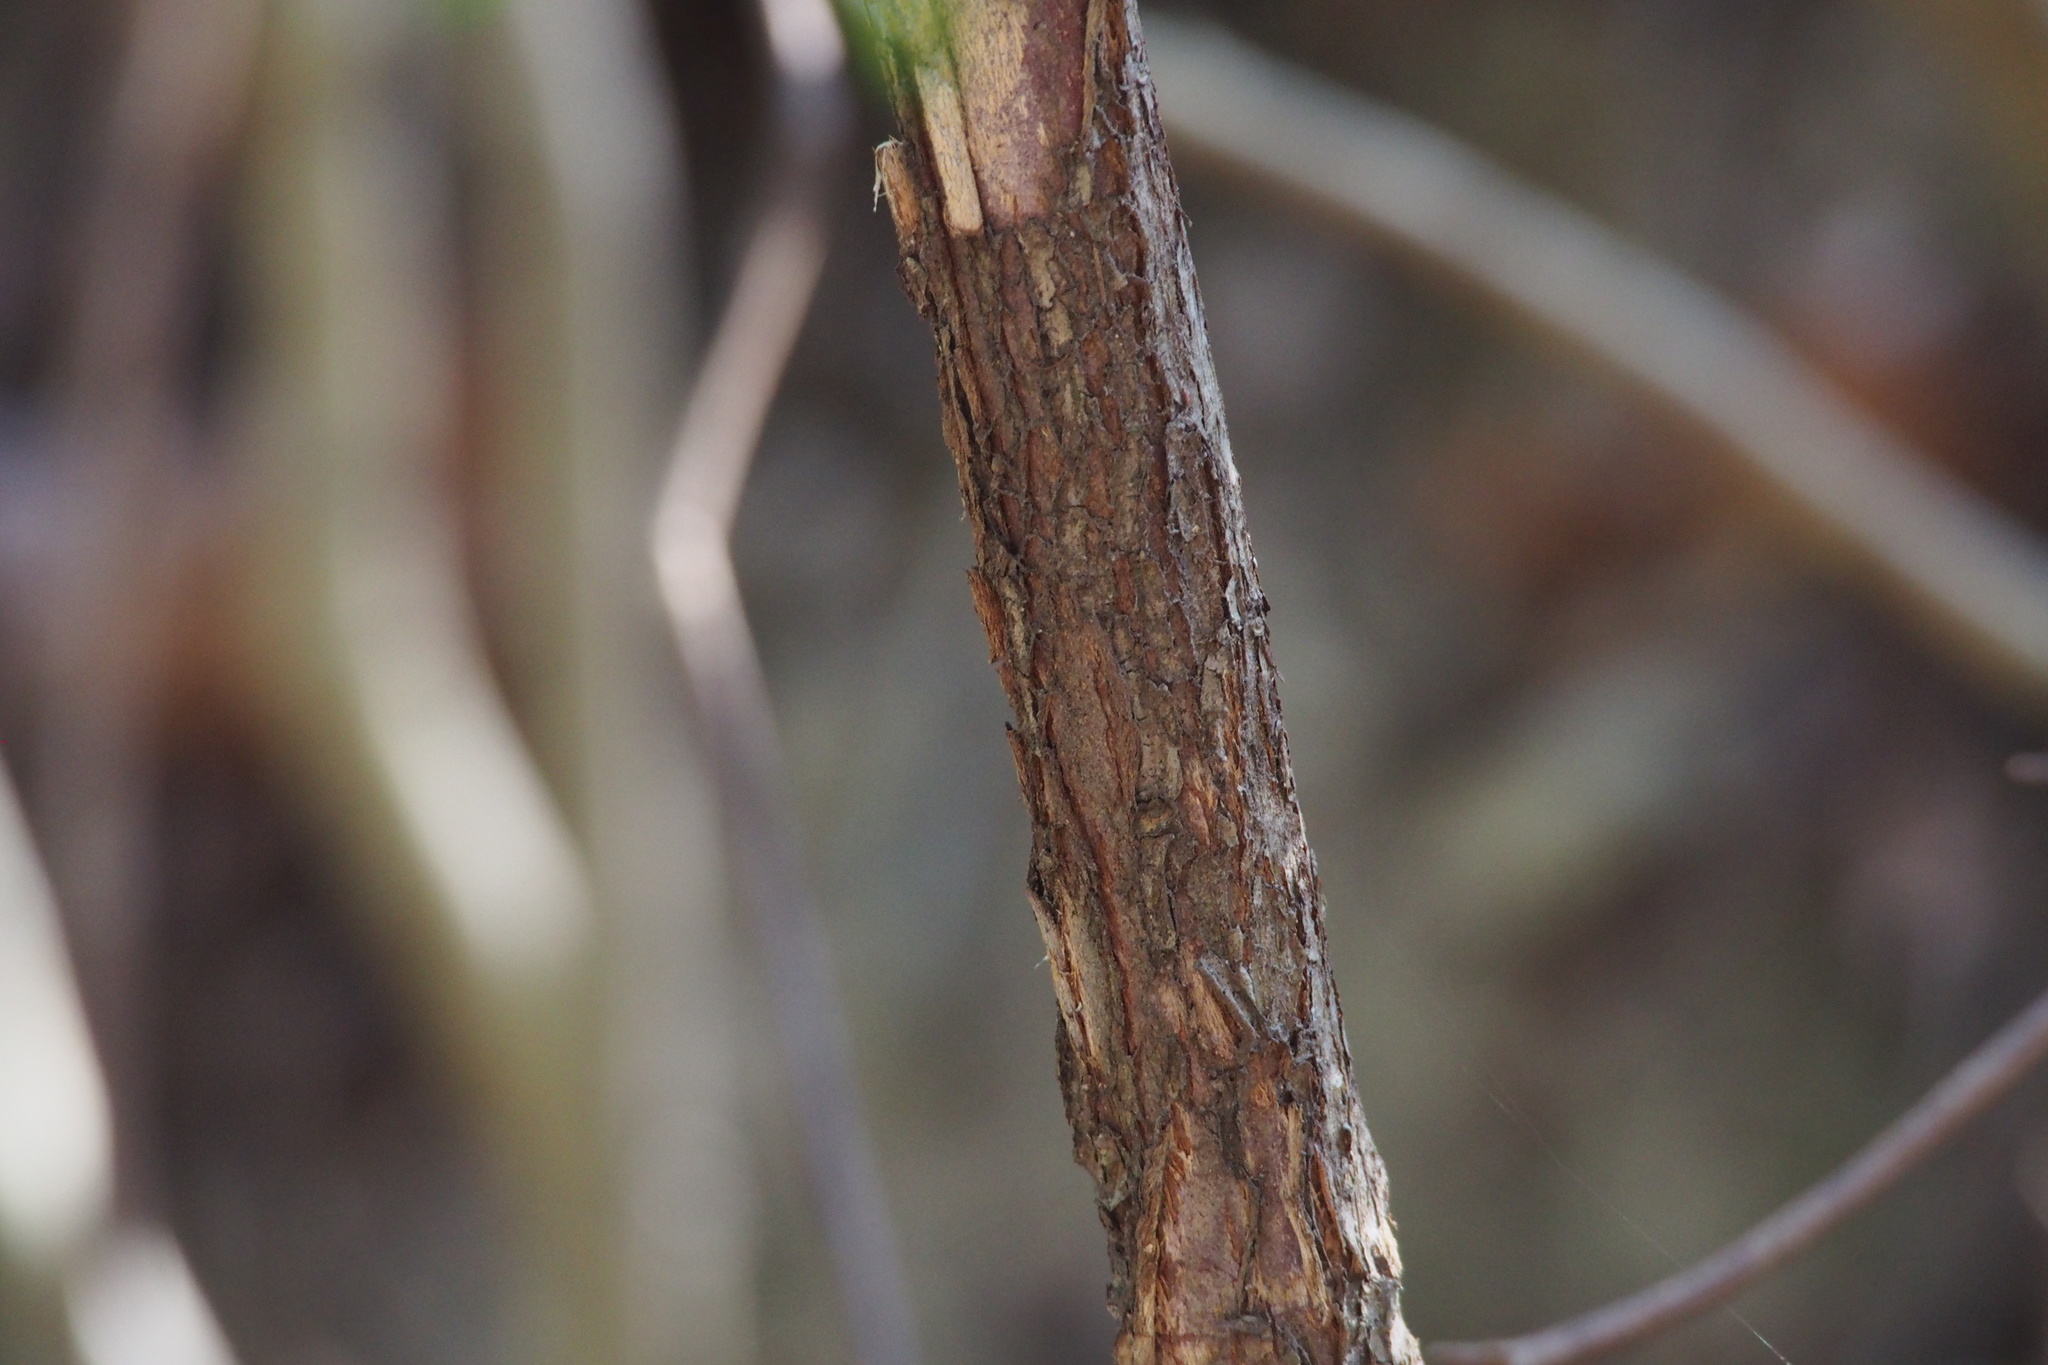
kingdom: Plantae
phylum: Tracheophyta
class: Pinopsida
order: Pinales
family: Cephalotaxaceae
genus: Cephalotaxus
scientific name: Cephalotaxus harringtonia
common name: Japanese plum-yew
